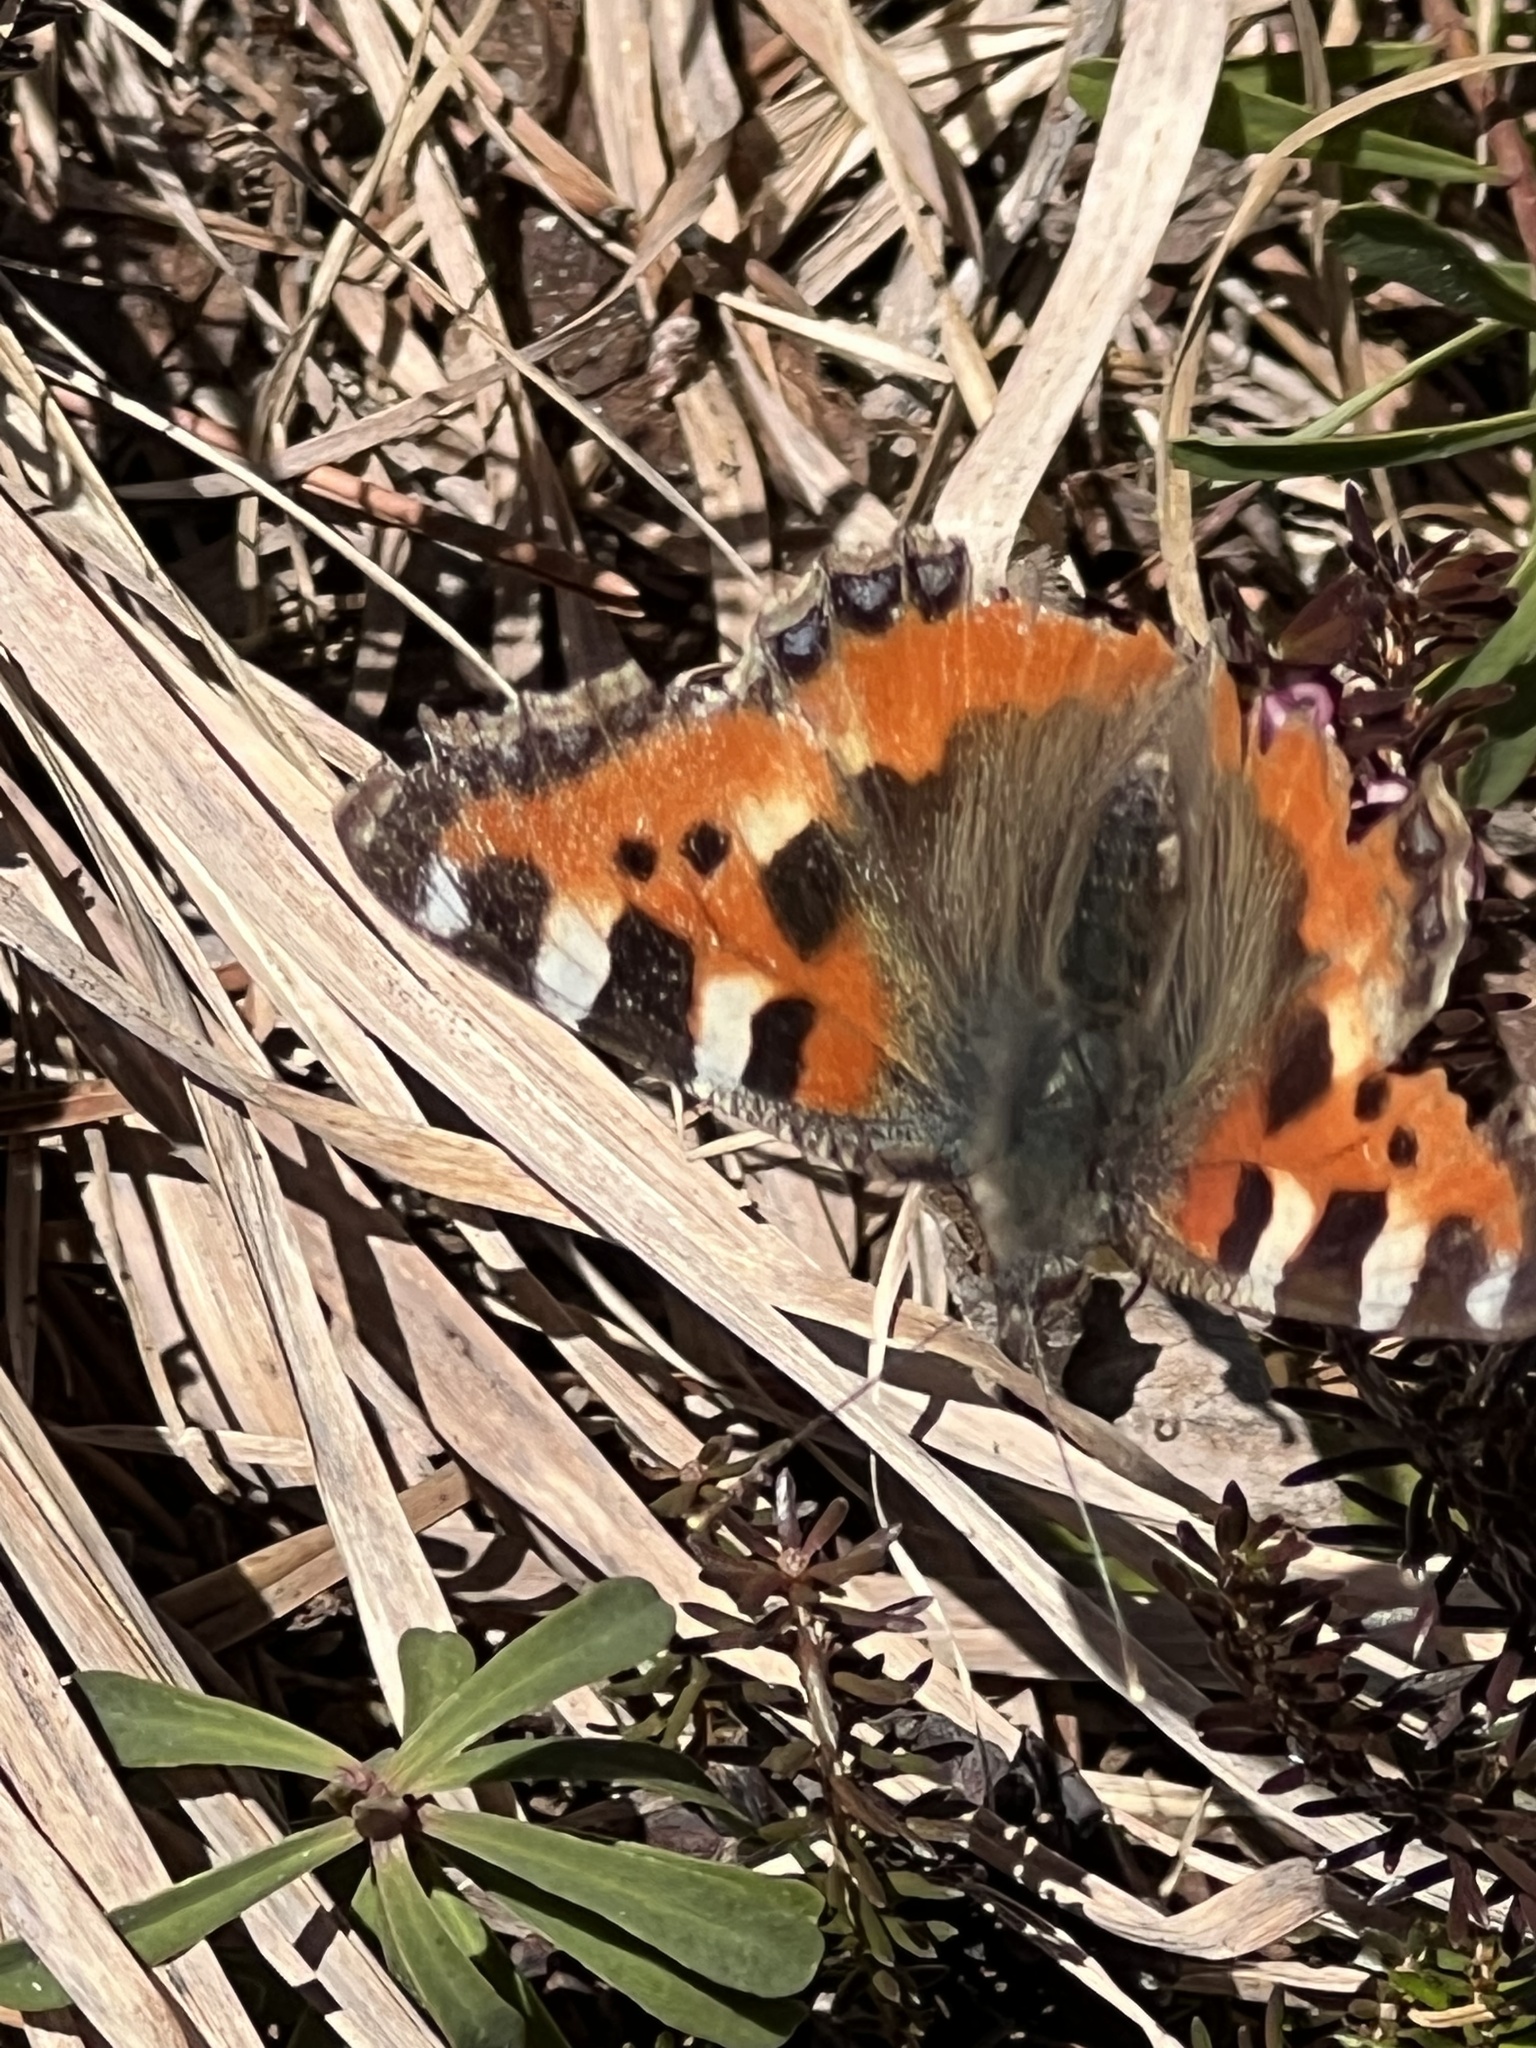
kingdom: Animalia
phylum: Arthropoda
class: Insecta
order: Lepidoptera
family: Nymphalidae
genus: Aglais
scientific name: Aglais urticae
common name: Small tortoiseshell
